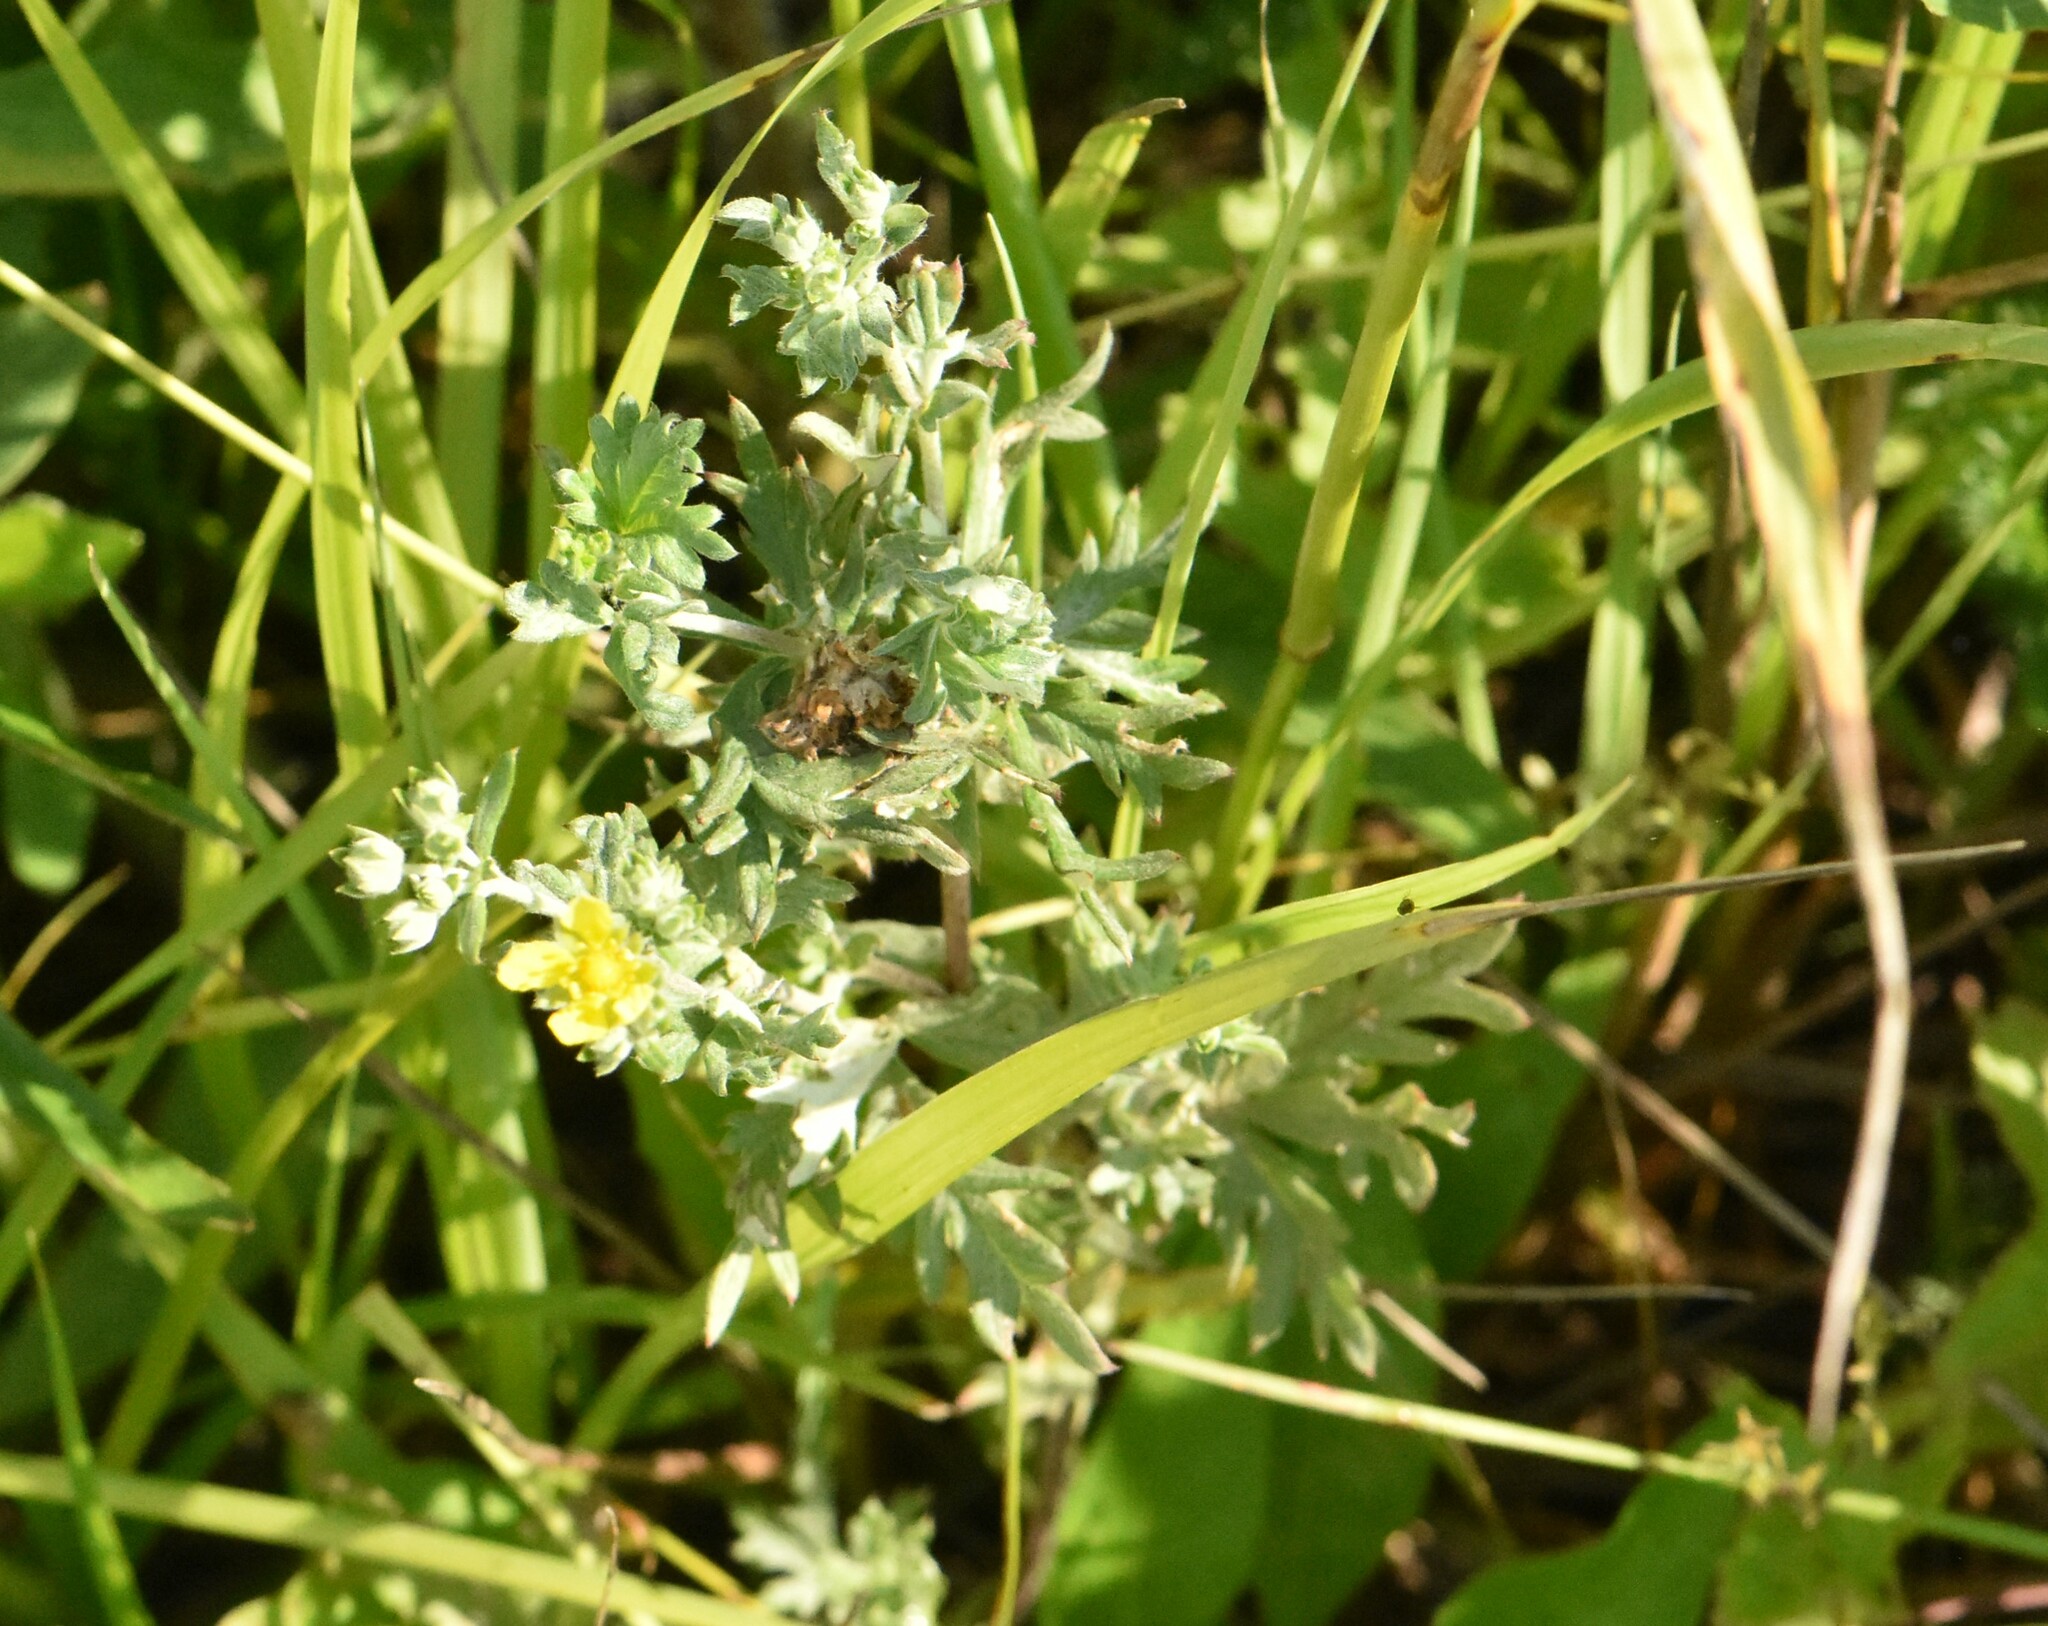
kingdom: Plantae
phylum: Tracheophyta
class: Magnoliopsida
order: Rosales
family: Rosaceae
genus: Potentilla
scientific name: Potentilla argentea
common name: Hoary cinquefoil
